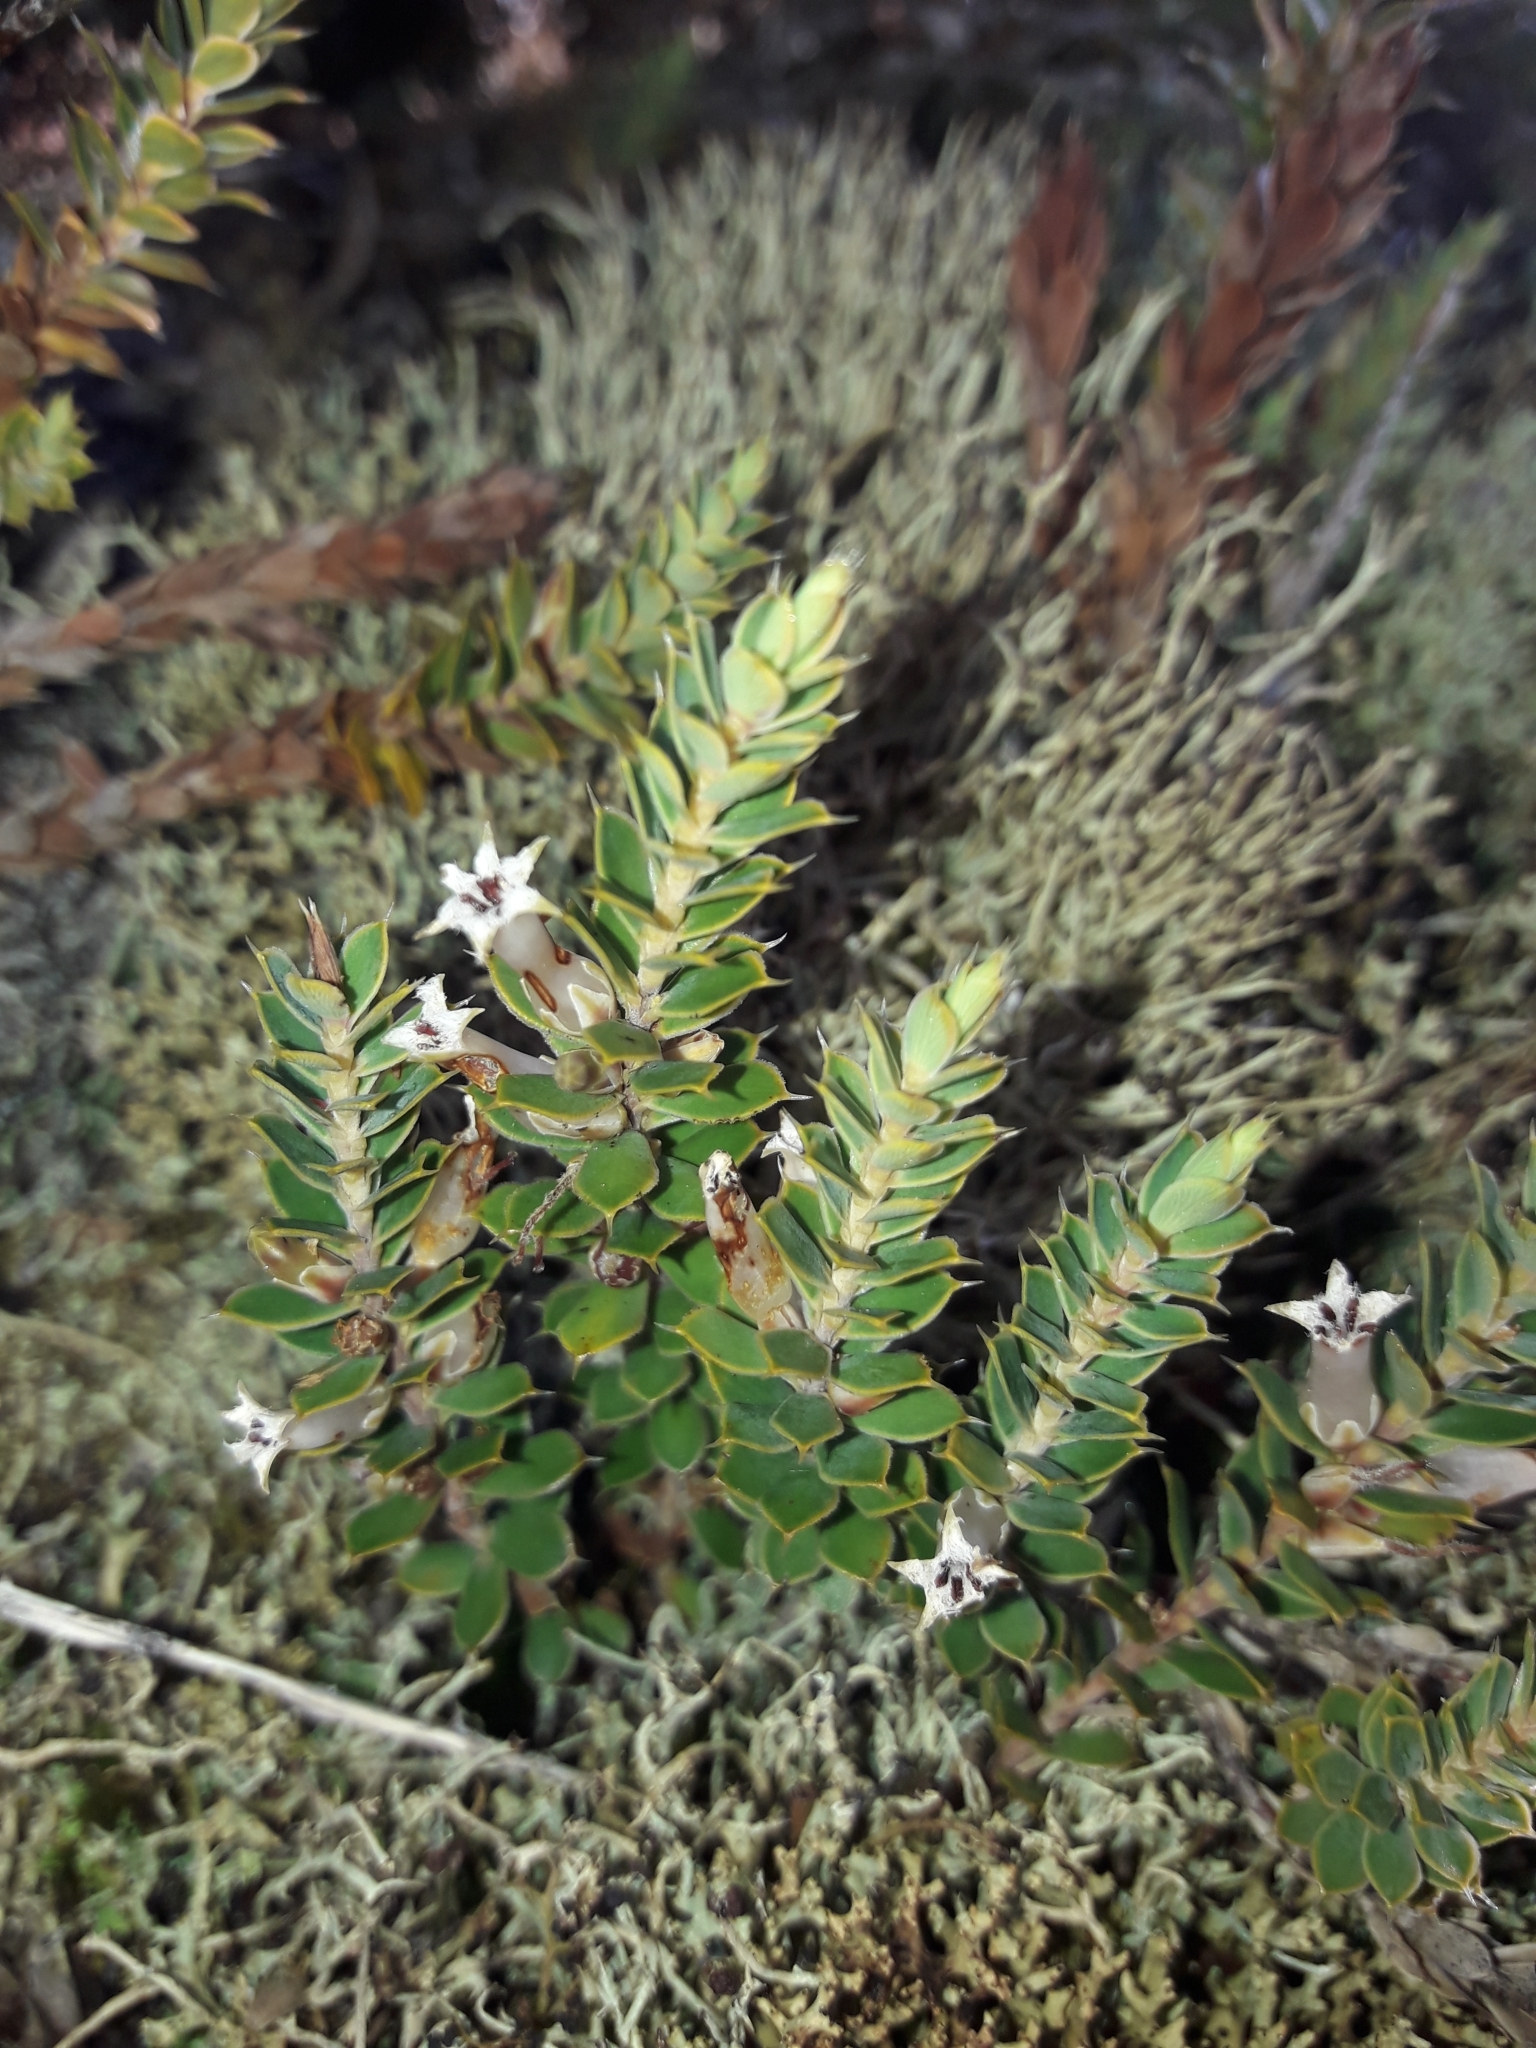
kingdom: Plantae
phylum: Tracheophyta
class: Magnoliopsida
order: Ericales
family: Ericaceae
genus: Styphelia
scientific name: Styphelia nesophila
